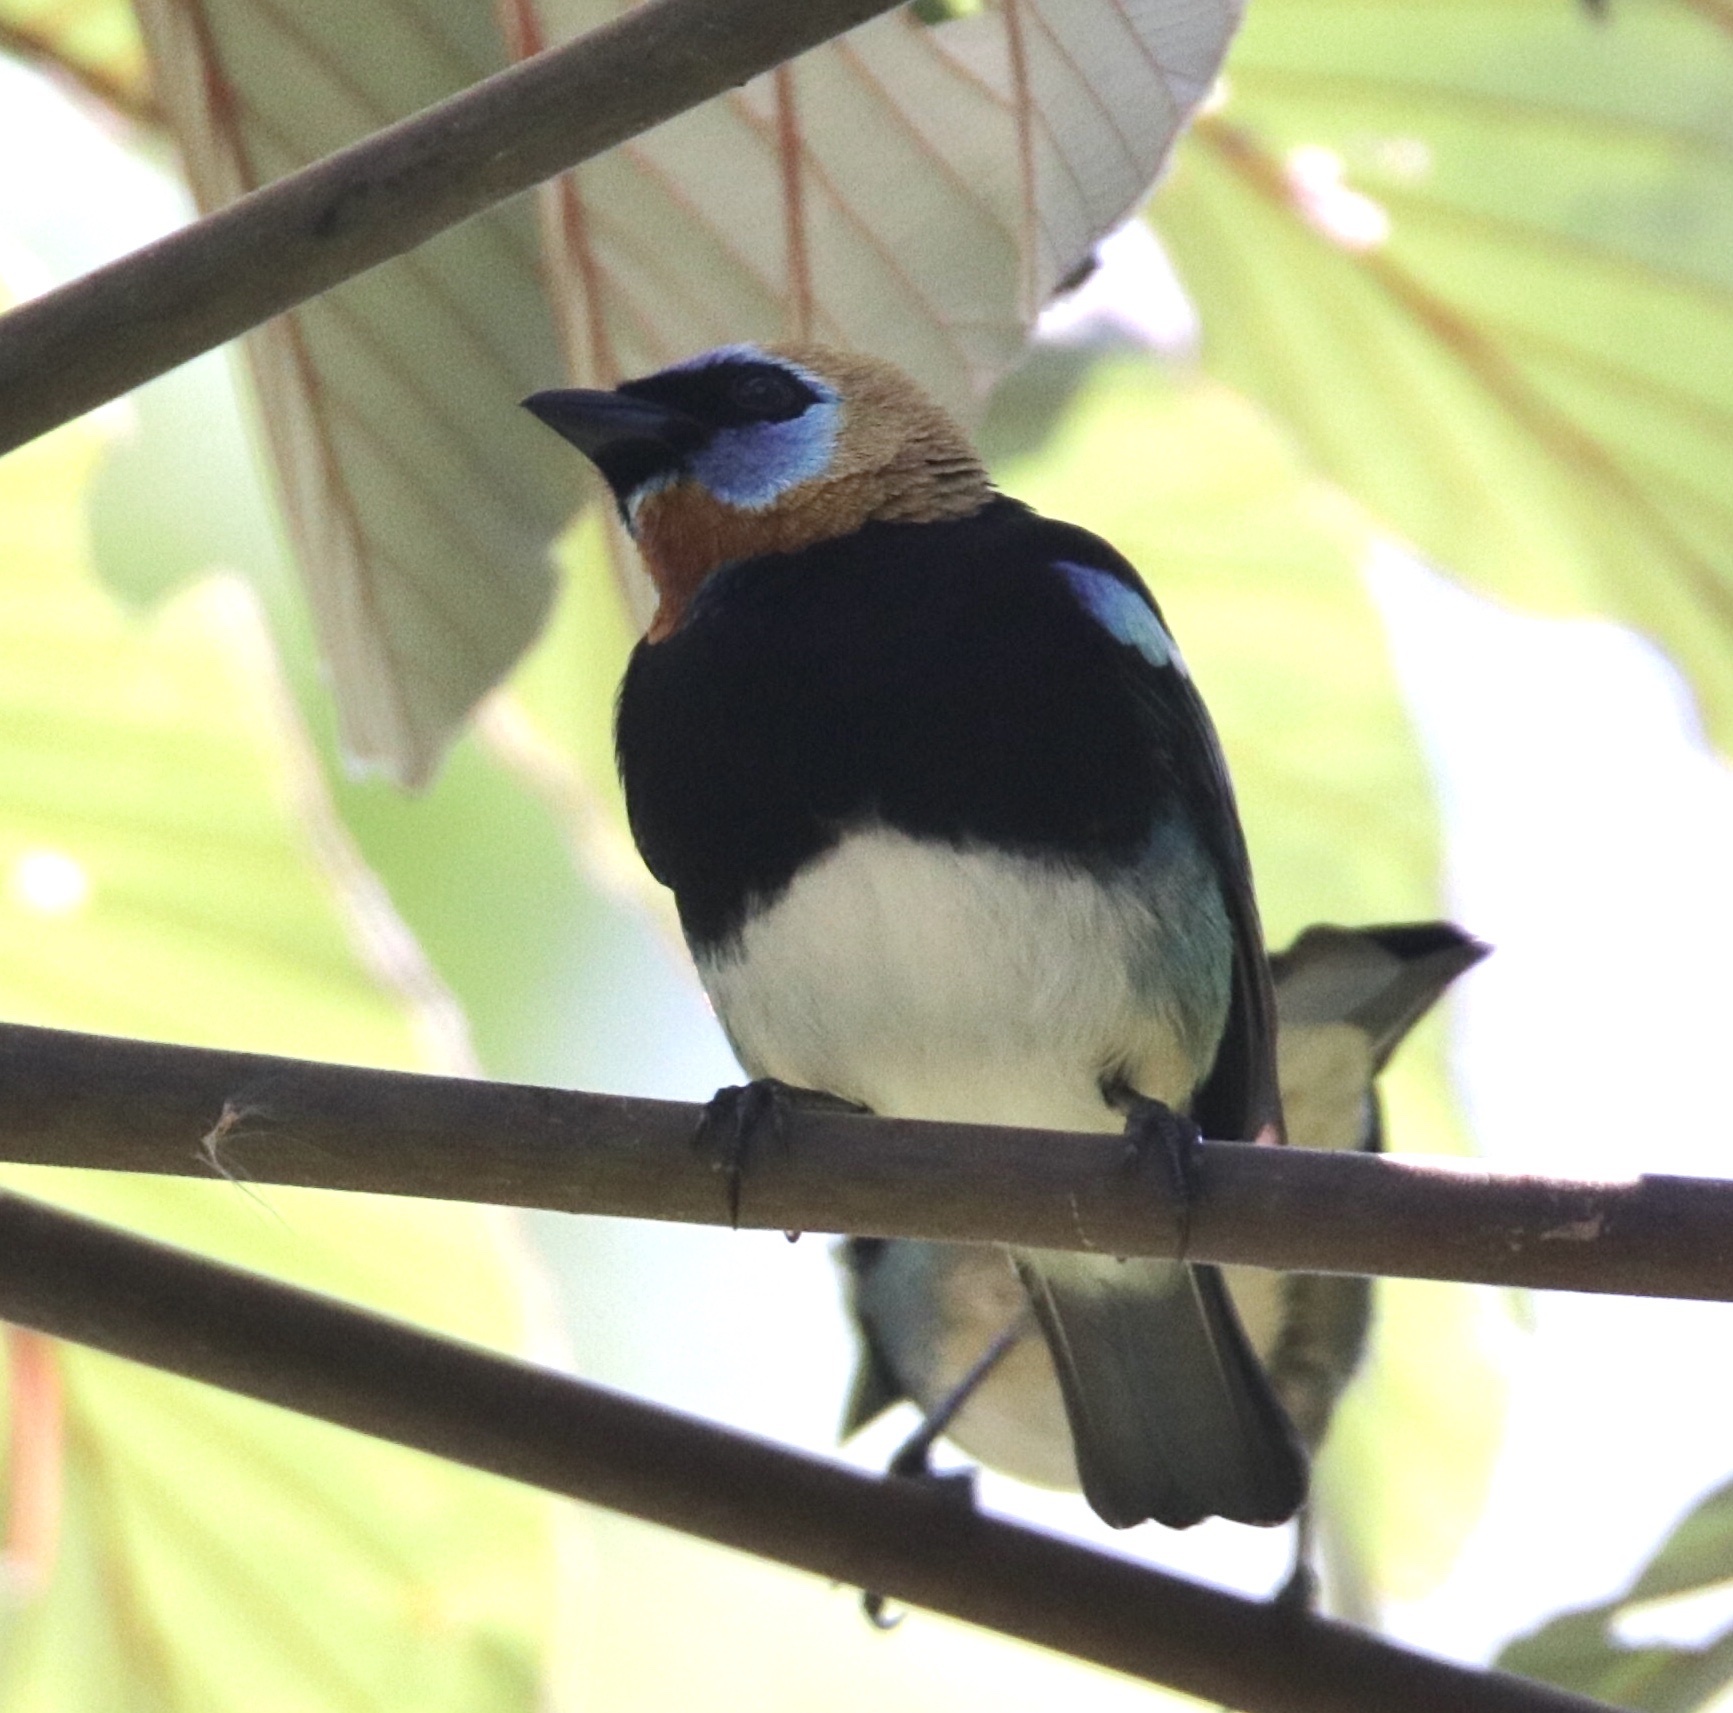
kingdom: Animalia
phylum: Chordata
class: Aves
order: Passeriformes
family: Thraupidae
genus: Stilpnia
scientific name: Stilpnia larvata
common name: Golden-hooded tanager
